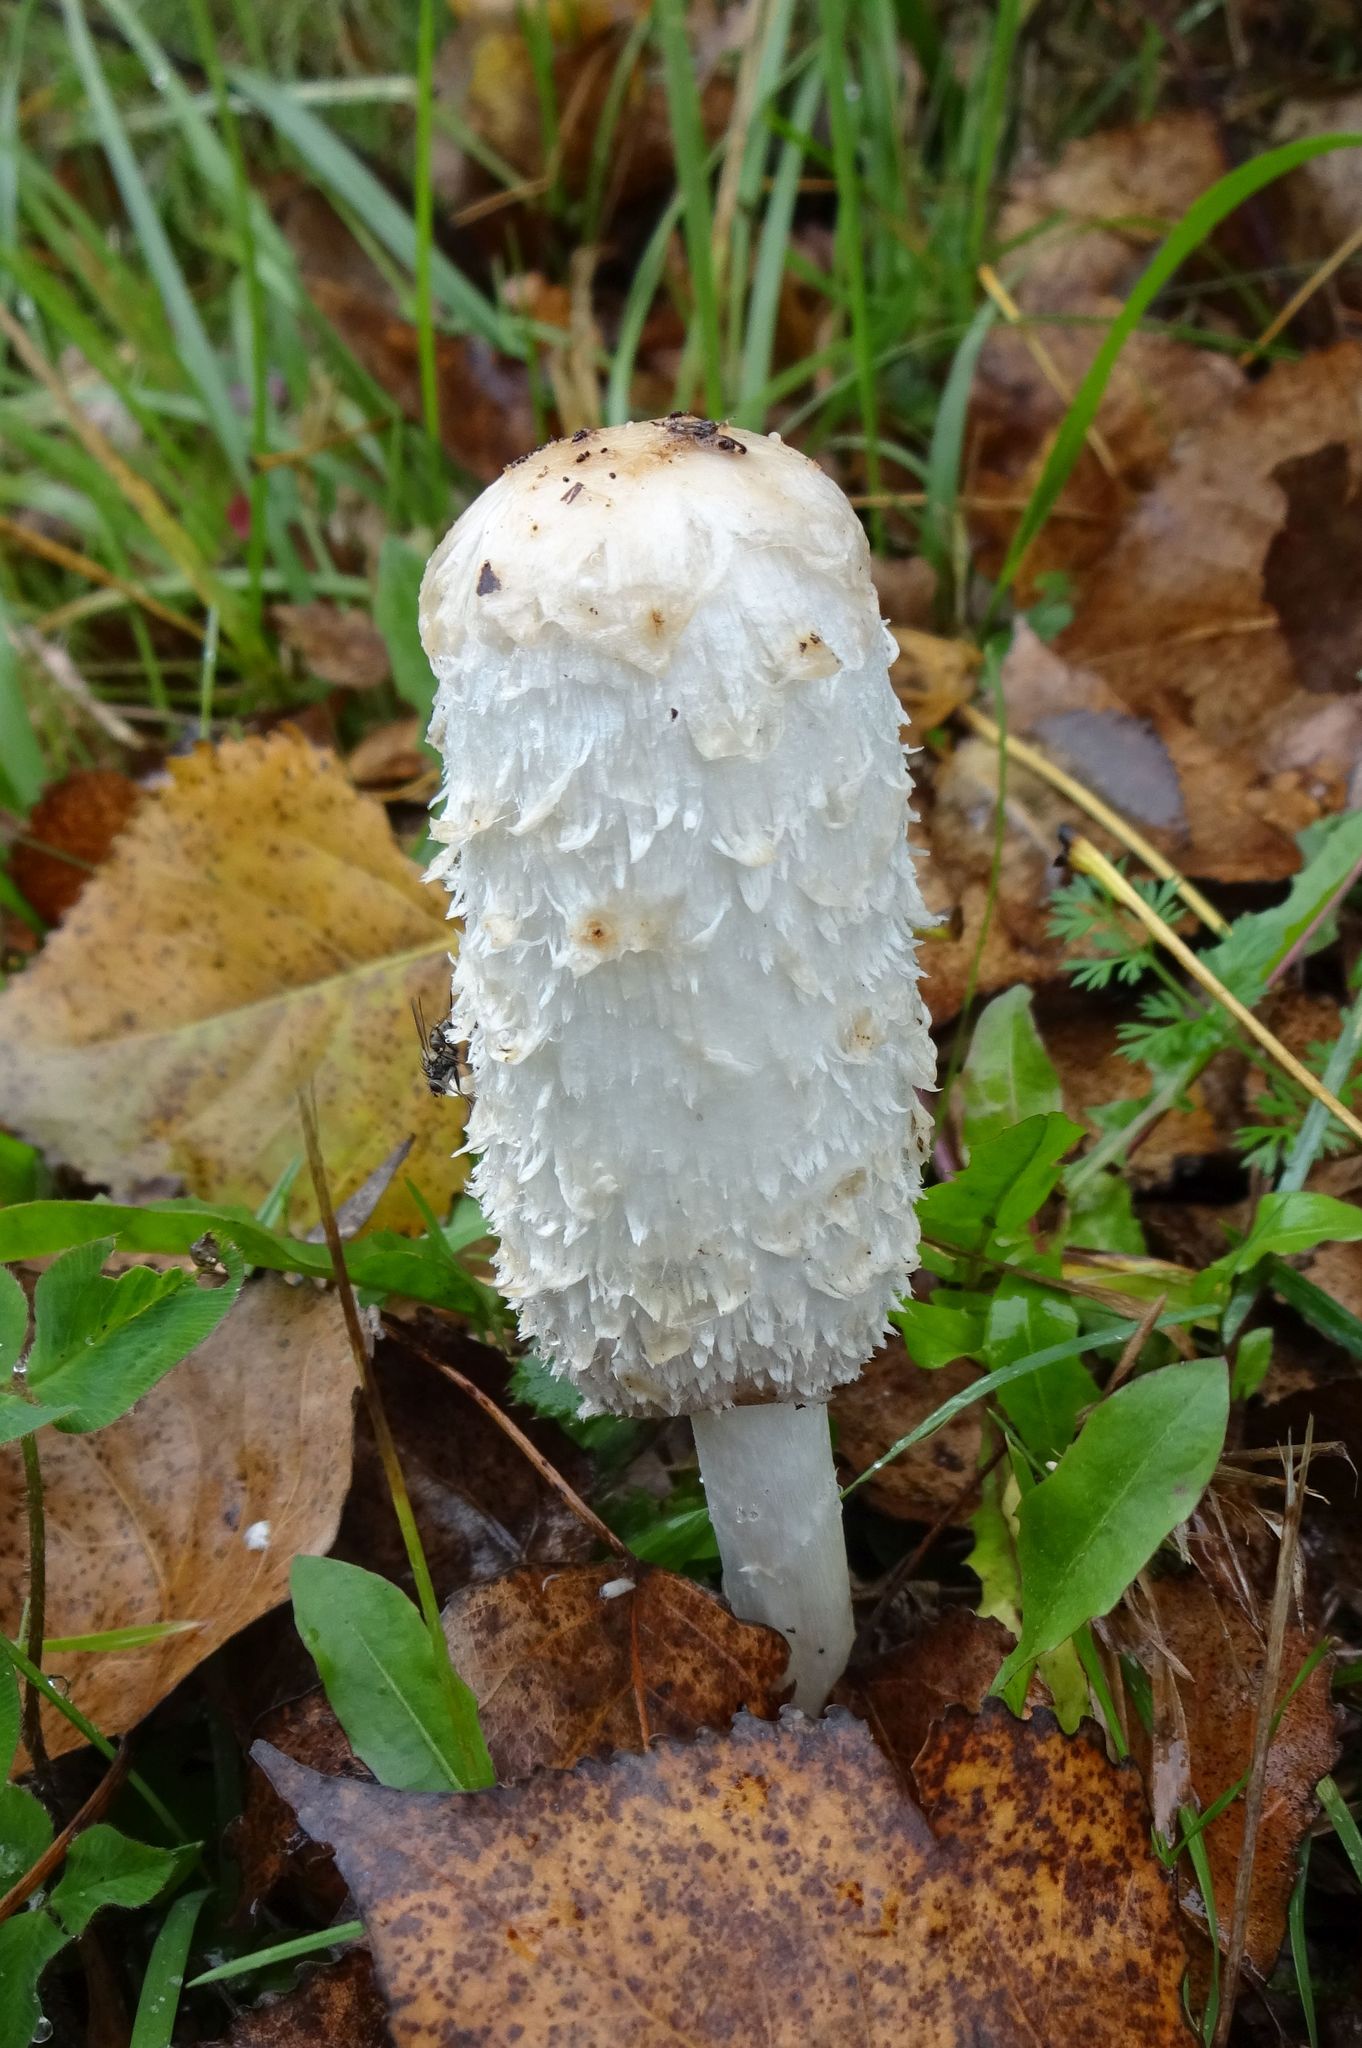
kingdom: Fungi
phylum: Basidiomycota
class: Agaricomycetes
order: Agaricales
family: Agaricaceae
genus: Coprinus
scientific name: Coprinus comatus
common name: Lawyer's wig
